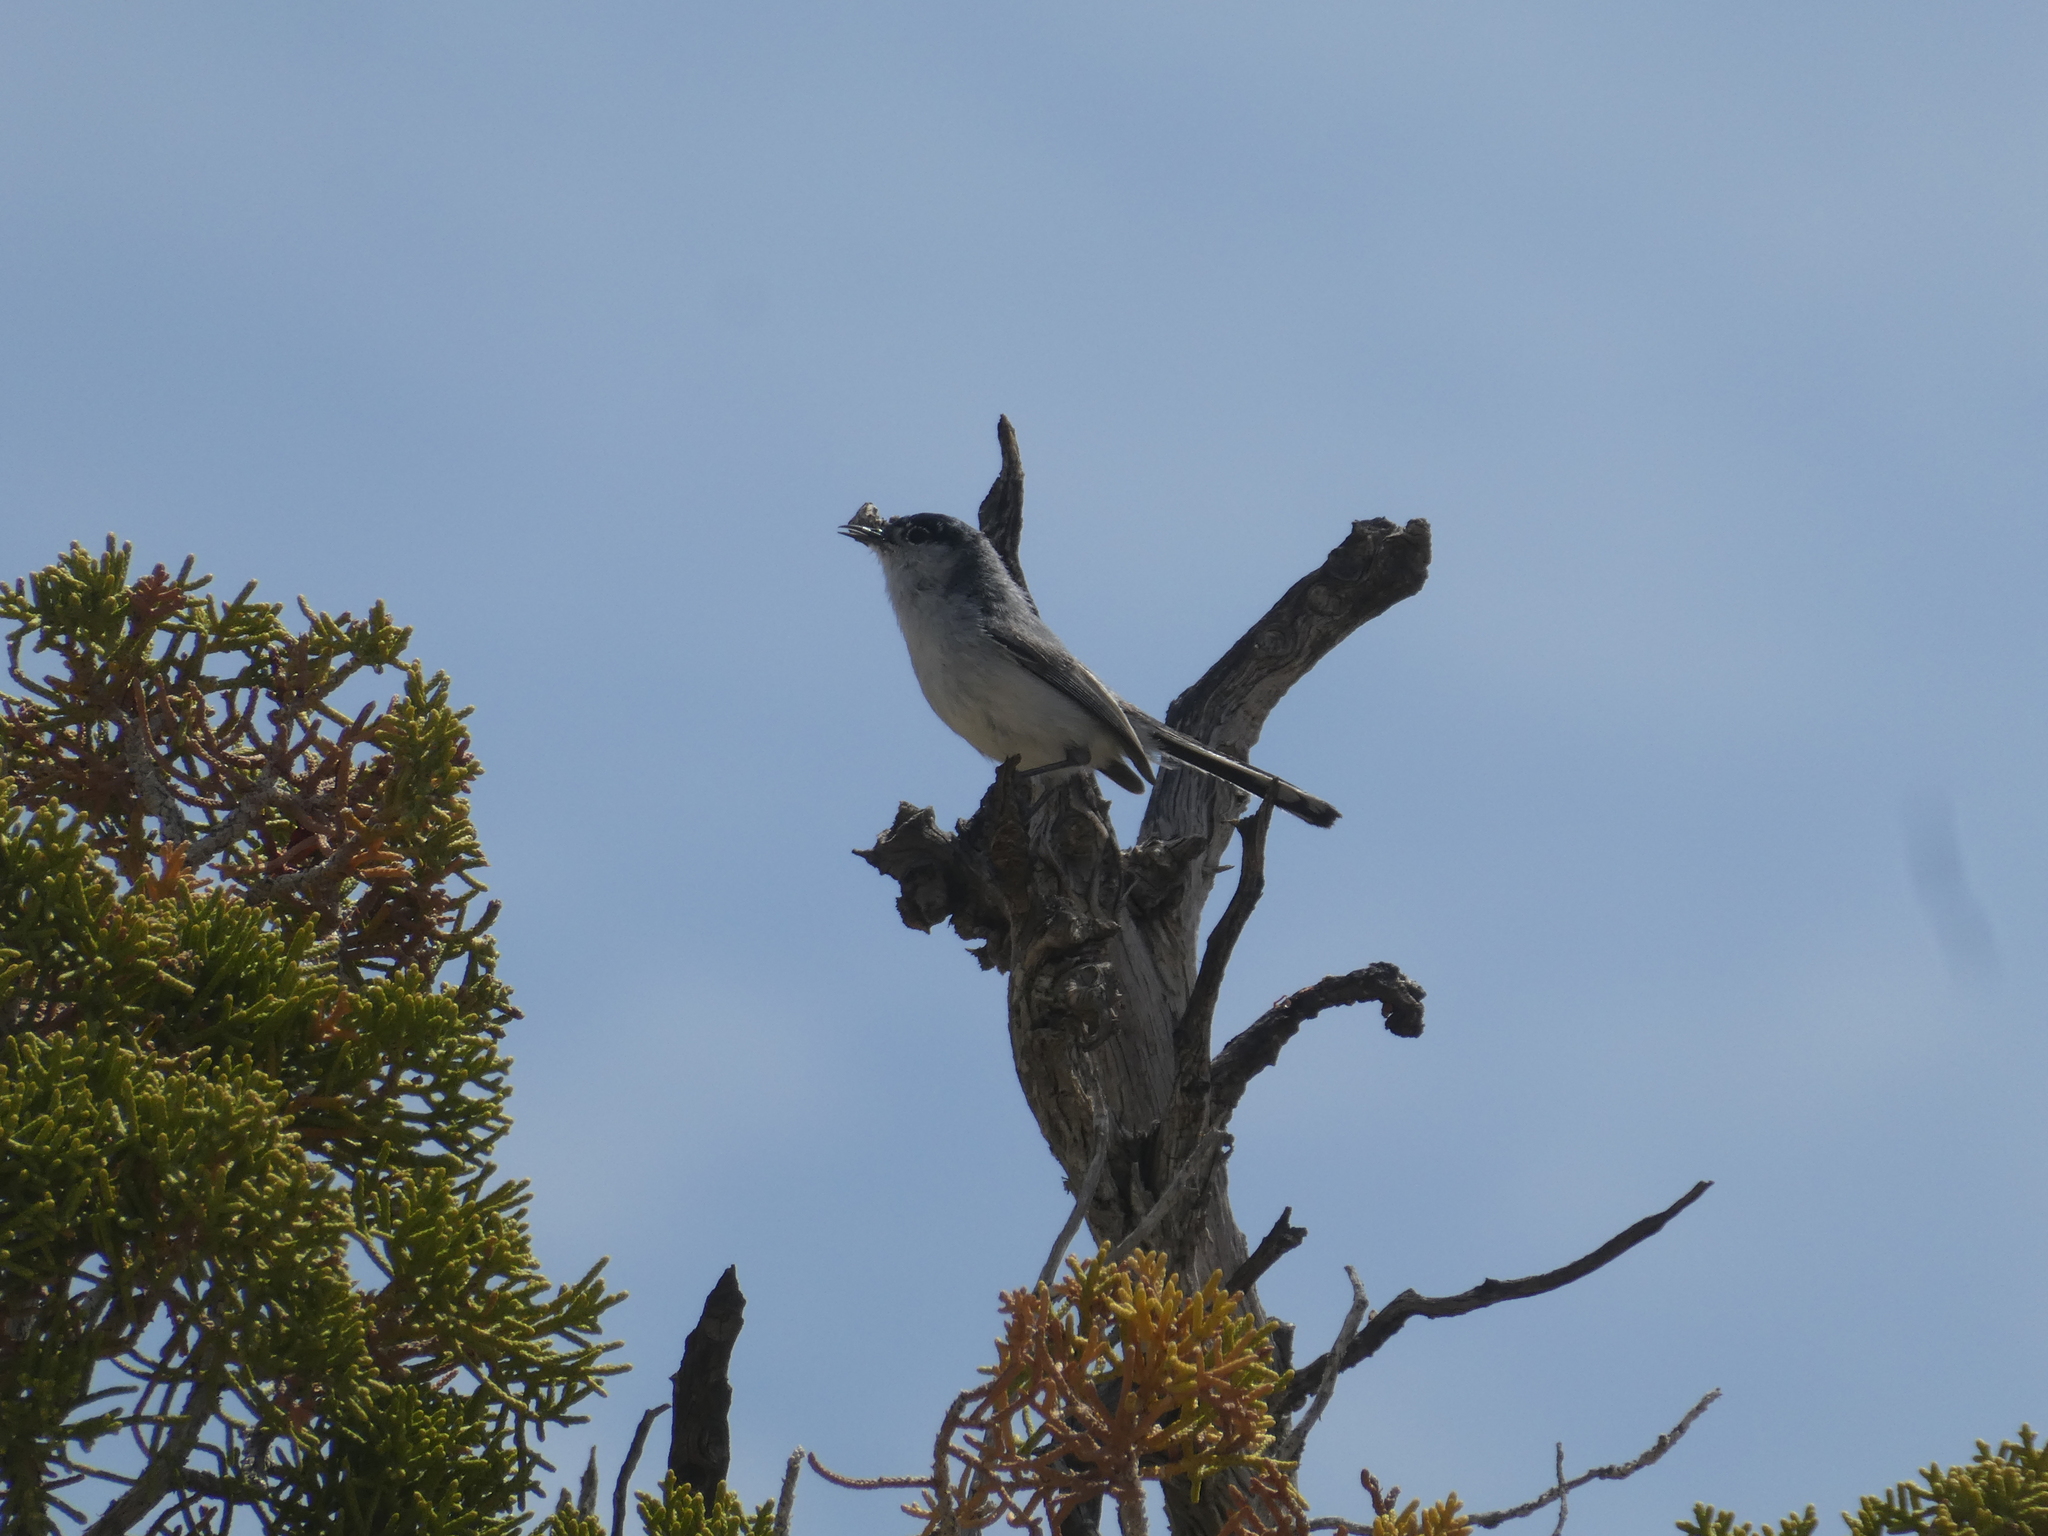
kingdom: Animalia
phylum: Chordata
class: Aves
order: Passeriformes
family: Polioptilidae
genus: Polioptila
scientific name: Polioptila melanura
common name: Black-tailed gnatcatcher
